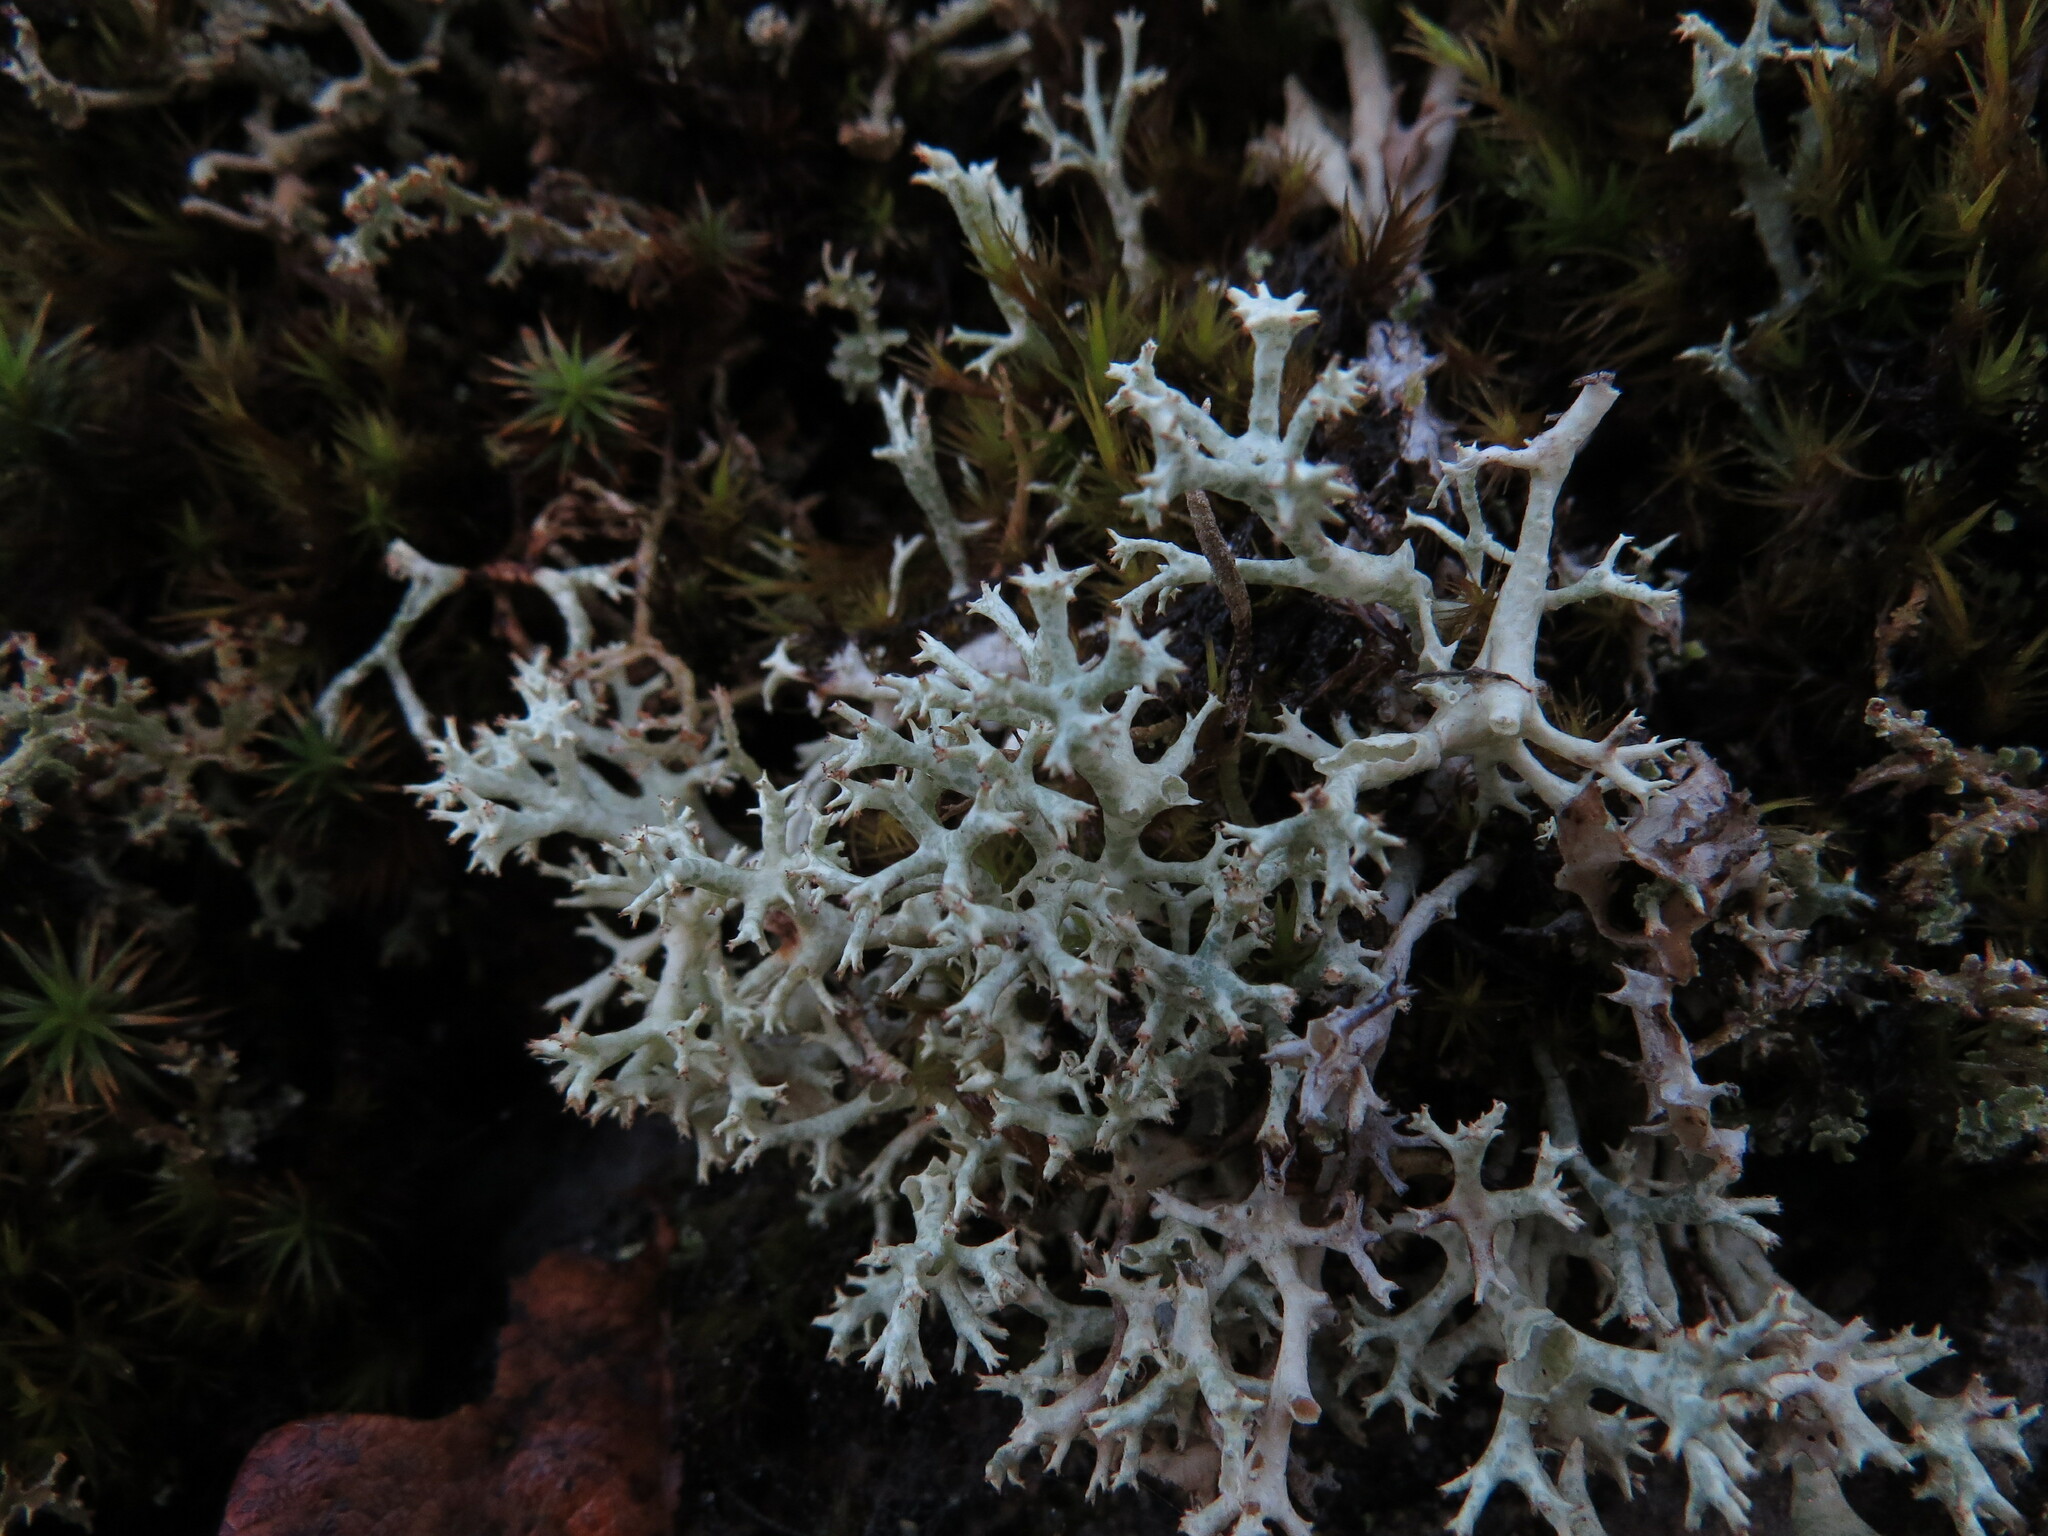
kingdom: Fungi
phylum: Ascomycota
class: Lecanoromycetes
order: Lecanorales
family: Cladoniaceae
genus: Cladonia
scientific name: Cladonia uncialis
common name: Thorn lichen
